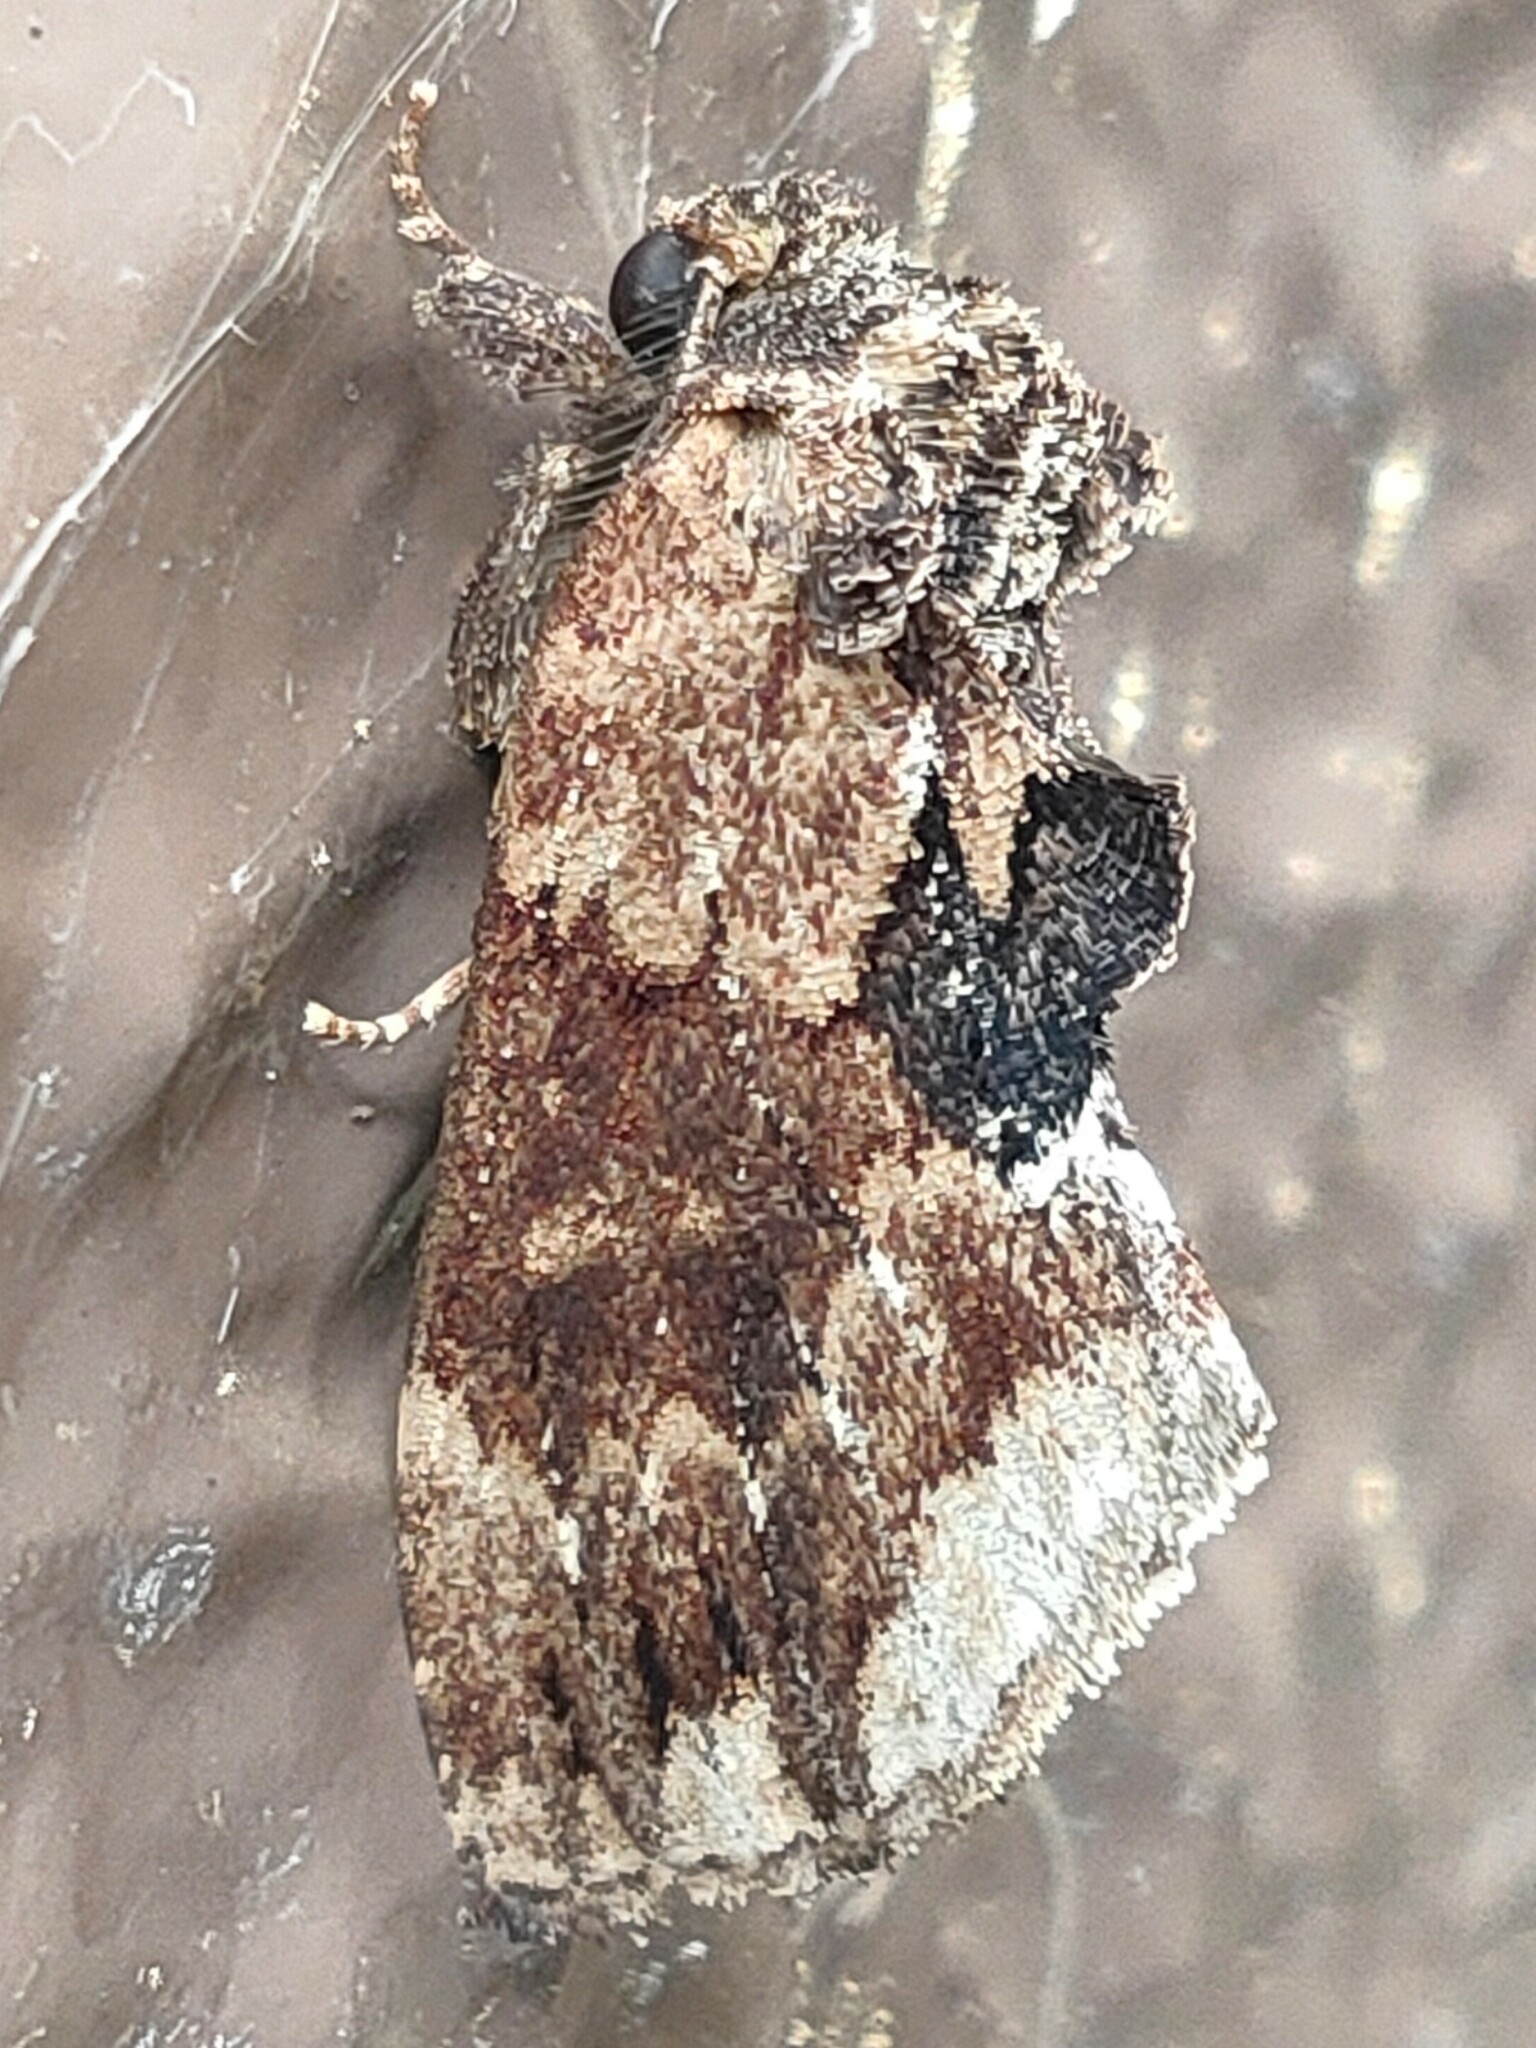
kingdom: Animalia
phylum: Arthropoda
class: Insecta
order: Lepidoptera
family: Notodontidae
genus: Lophontosia
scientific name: Lophontosia
